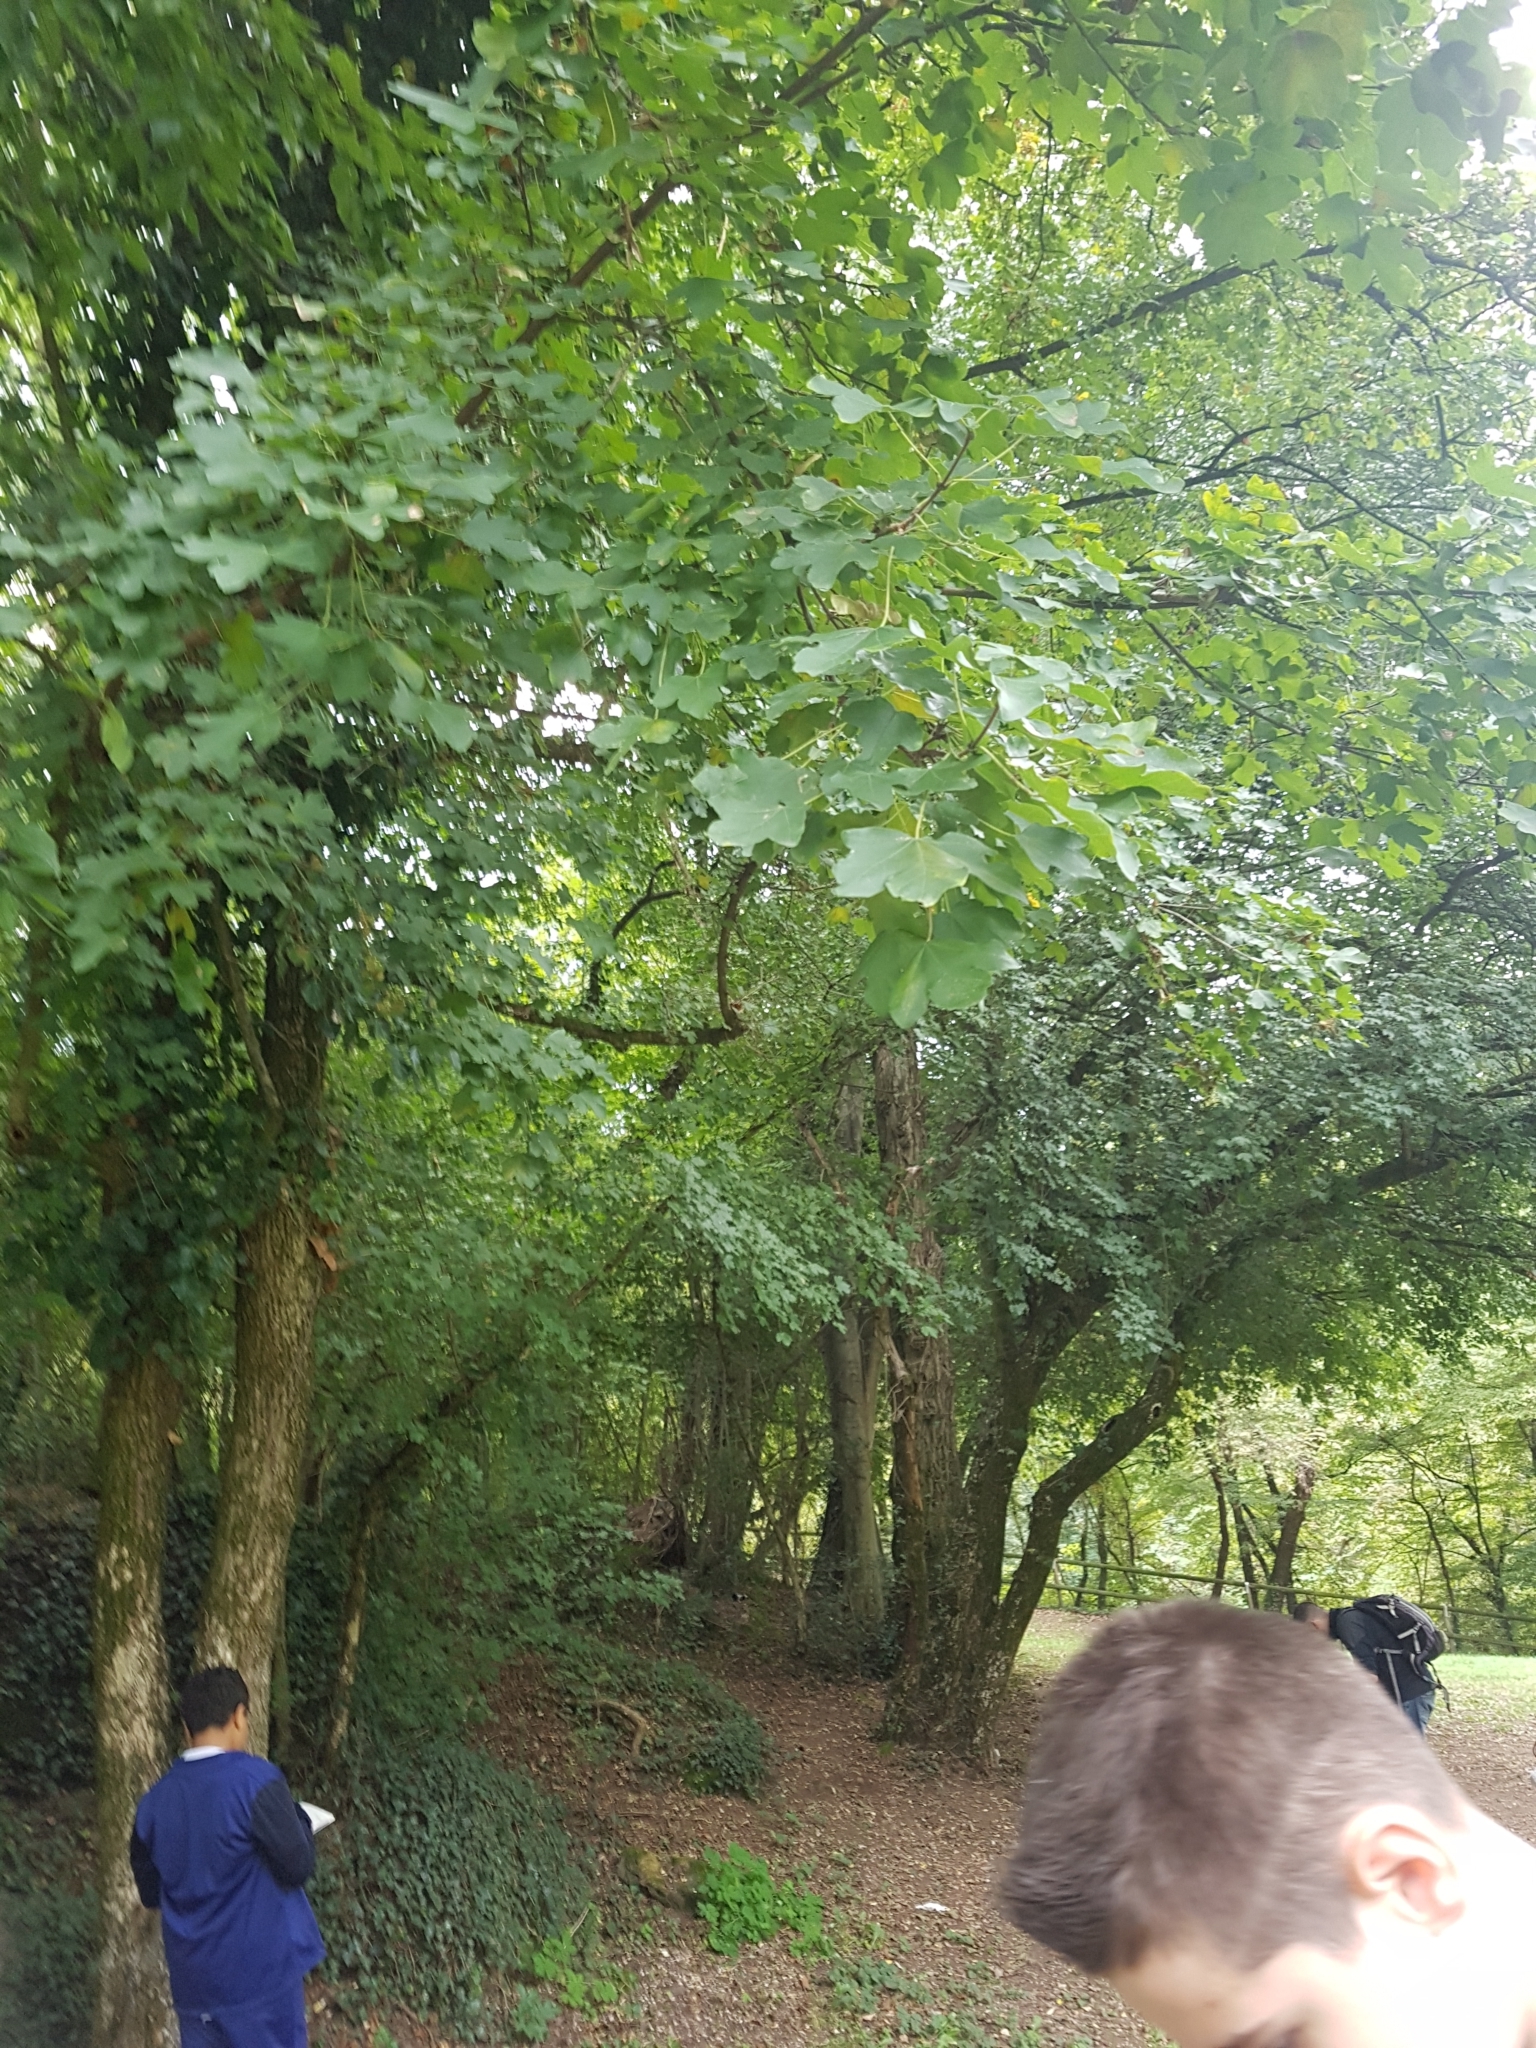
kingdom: Plantae
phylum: Tracheophyta
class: Magnoliopsida
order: Sapindales
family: Sapindaceae
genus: Acer
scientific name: Acer campestre
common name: Field maple
